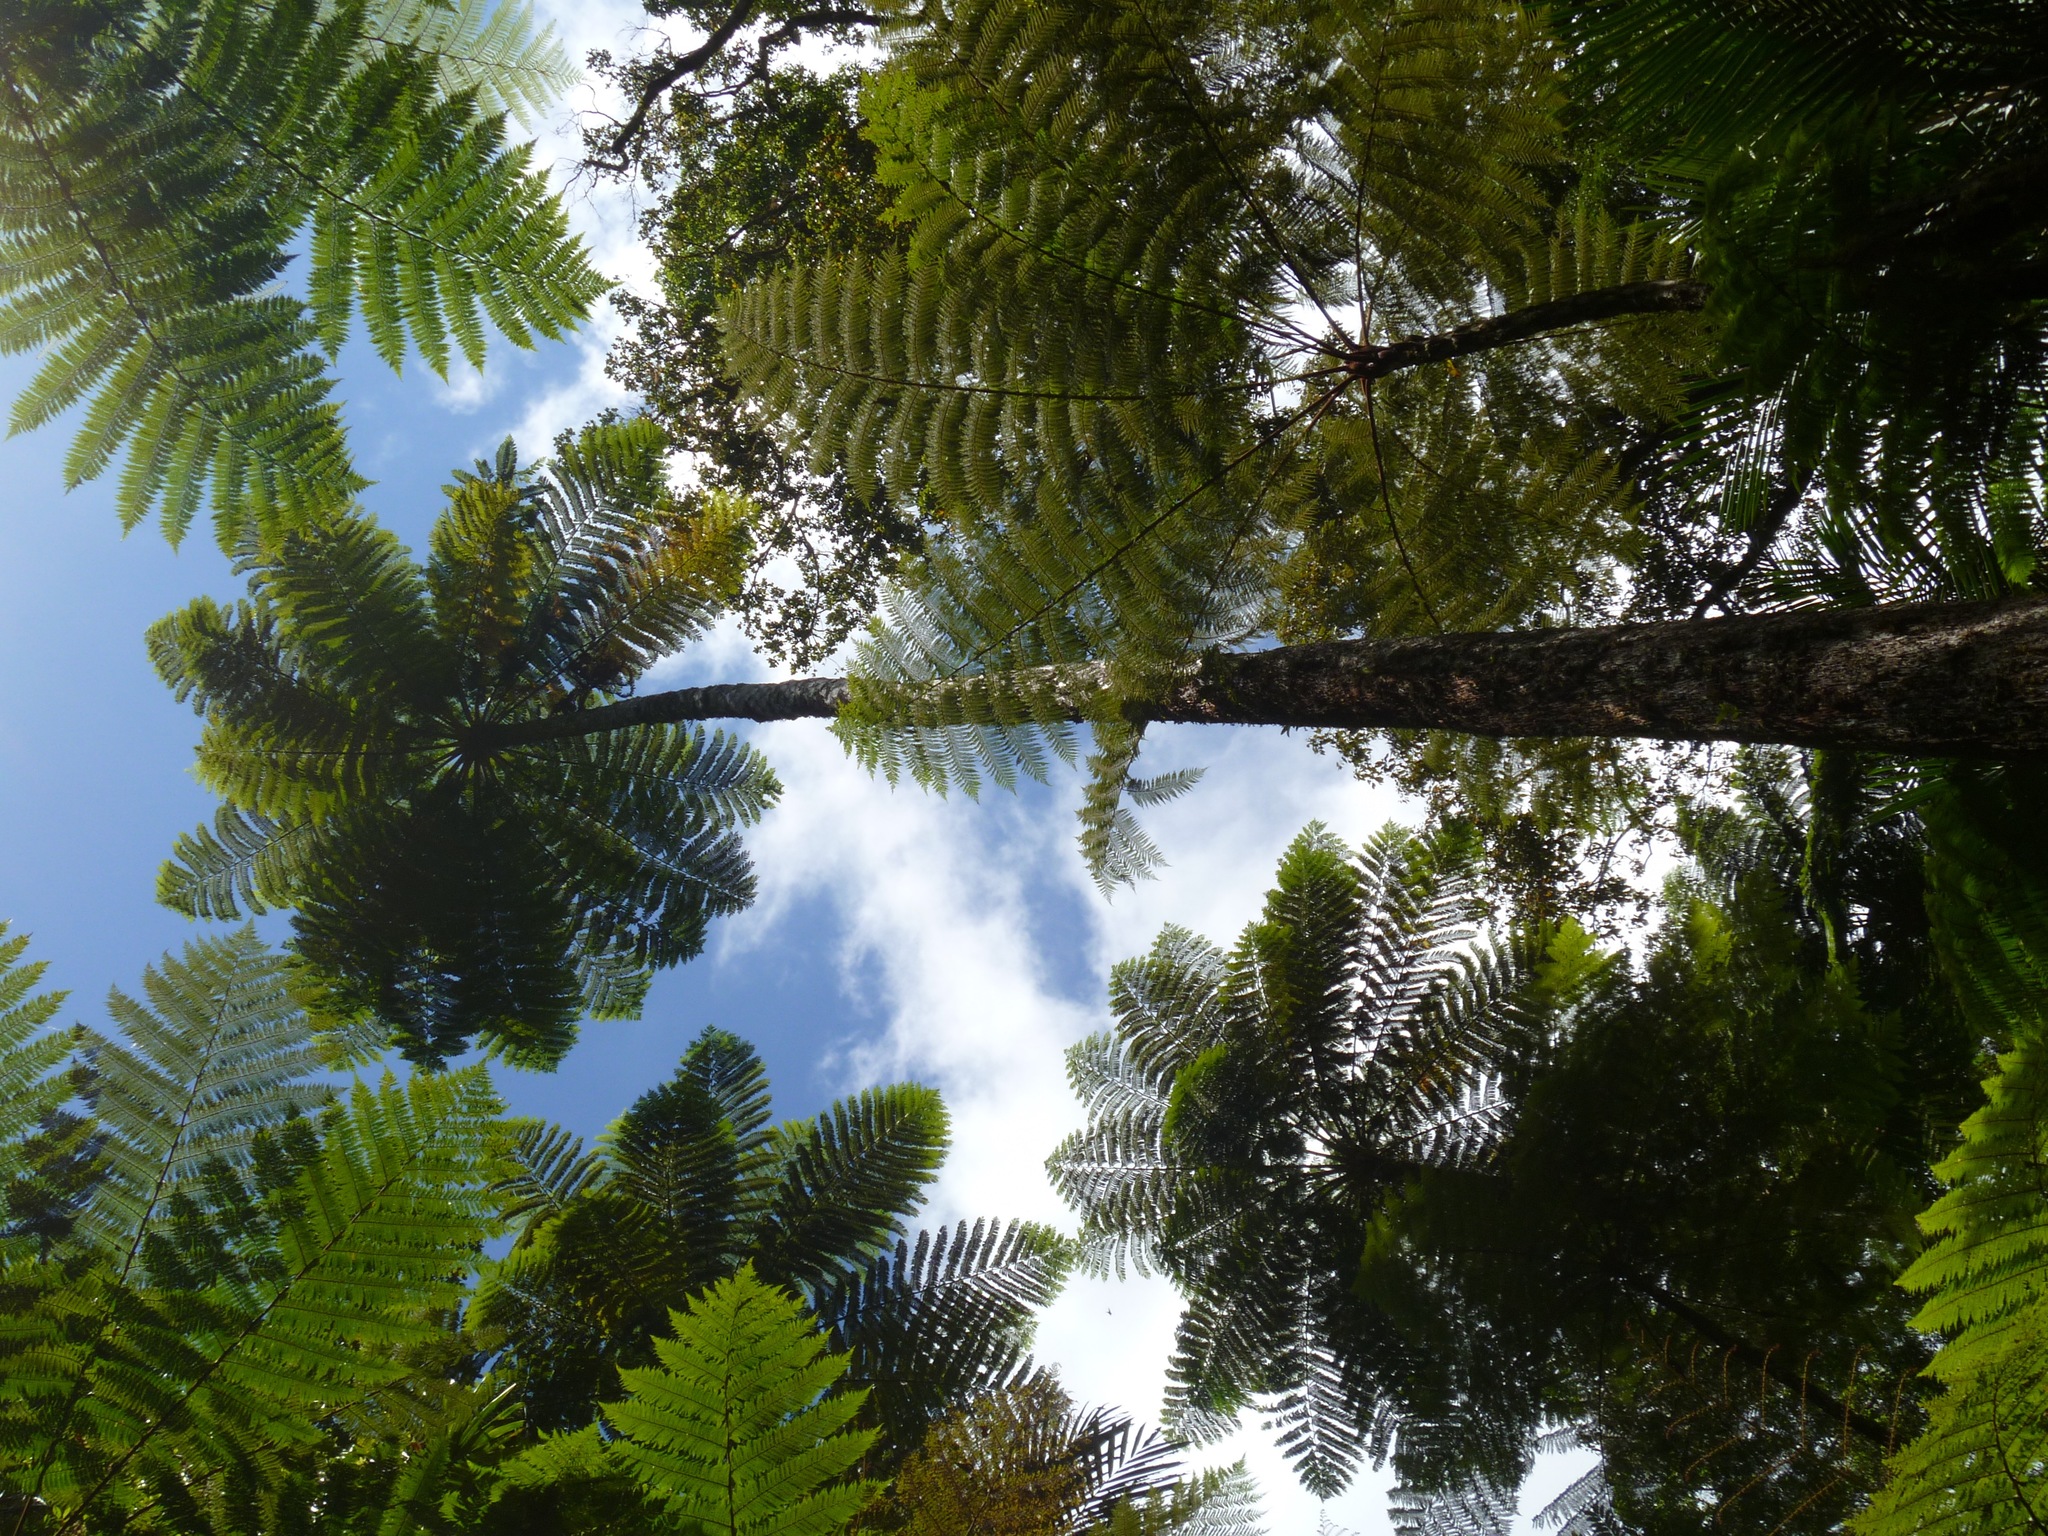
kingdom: Plantae
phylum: Tracheophyta
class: Polypodiopsida
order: Cyatheales
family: Cyatheaceae
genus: Sphaeropteris
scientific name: Sphaeropteris intermedia
